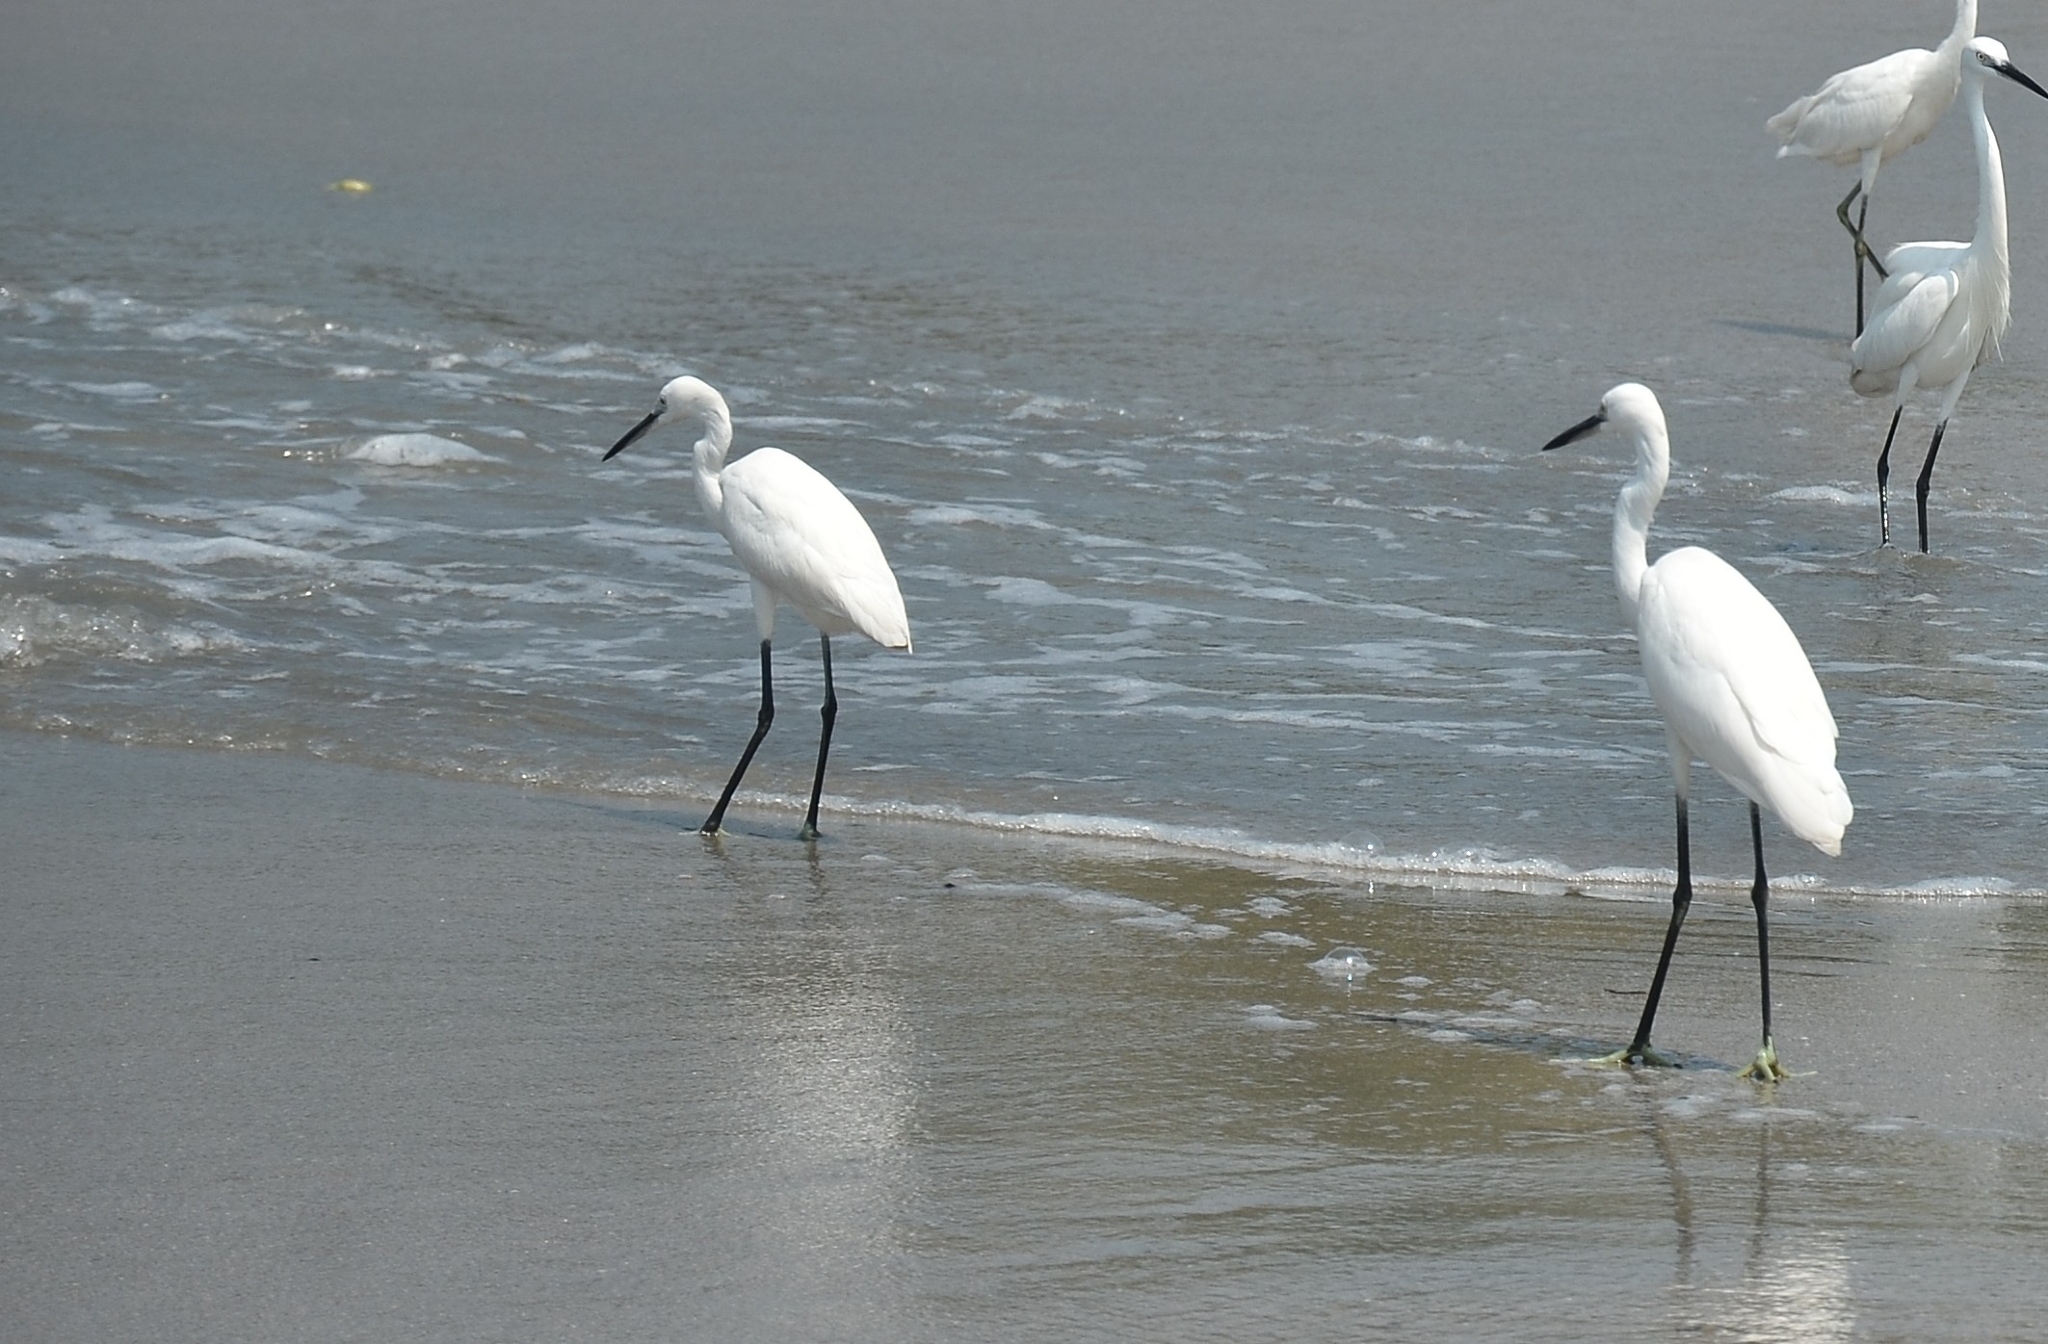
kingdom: Animalia
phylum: Chordata
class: Aves
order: Pelecaniformes
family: Ardeidae
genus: Egretta
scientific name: Egretta garzetta
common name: Little egret
